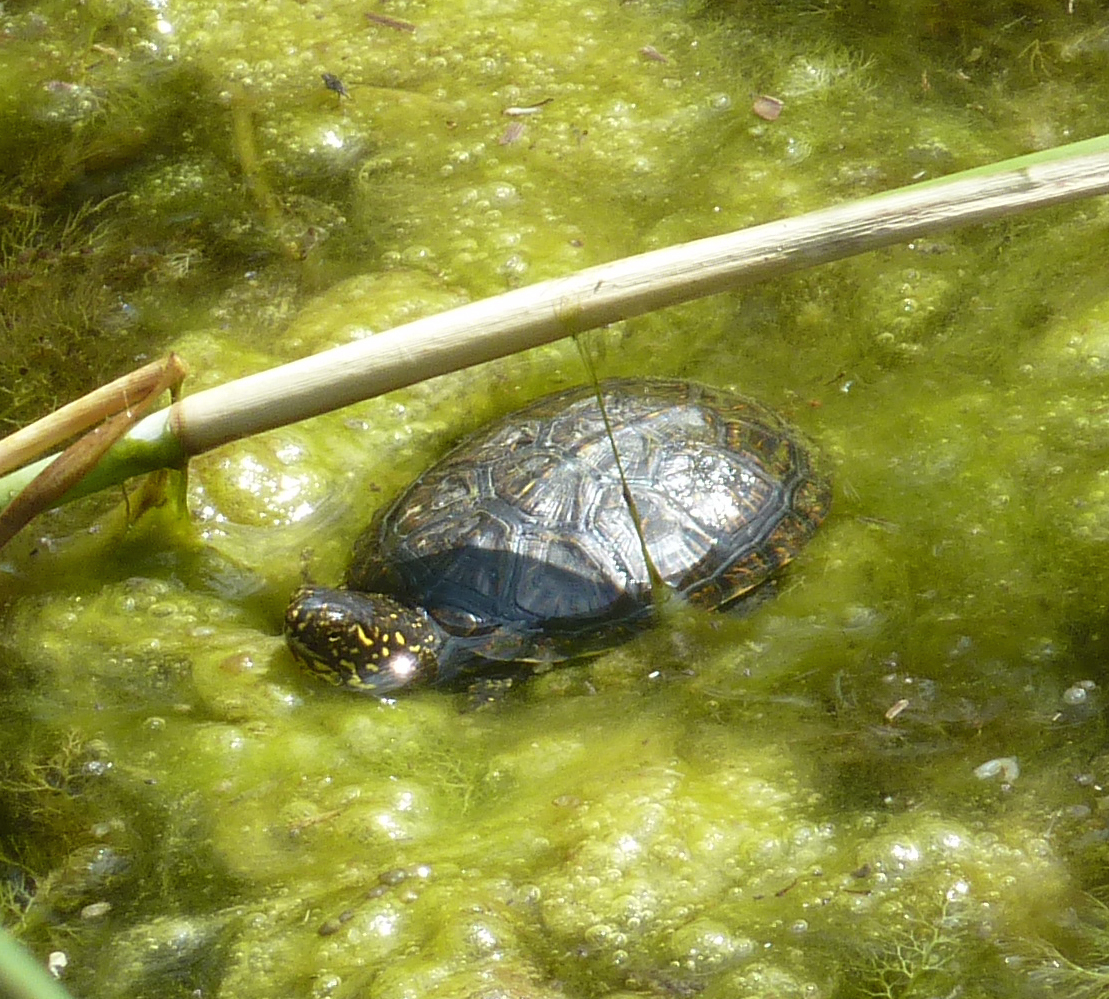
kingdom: Animalia
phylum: Chordata
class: Testudines
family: Emydidae
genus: Emys
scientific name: Emys orbicularis
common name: European pond turtle
